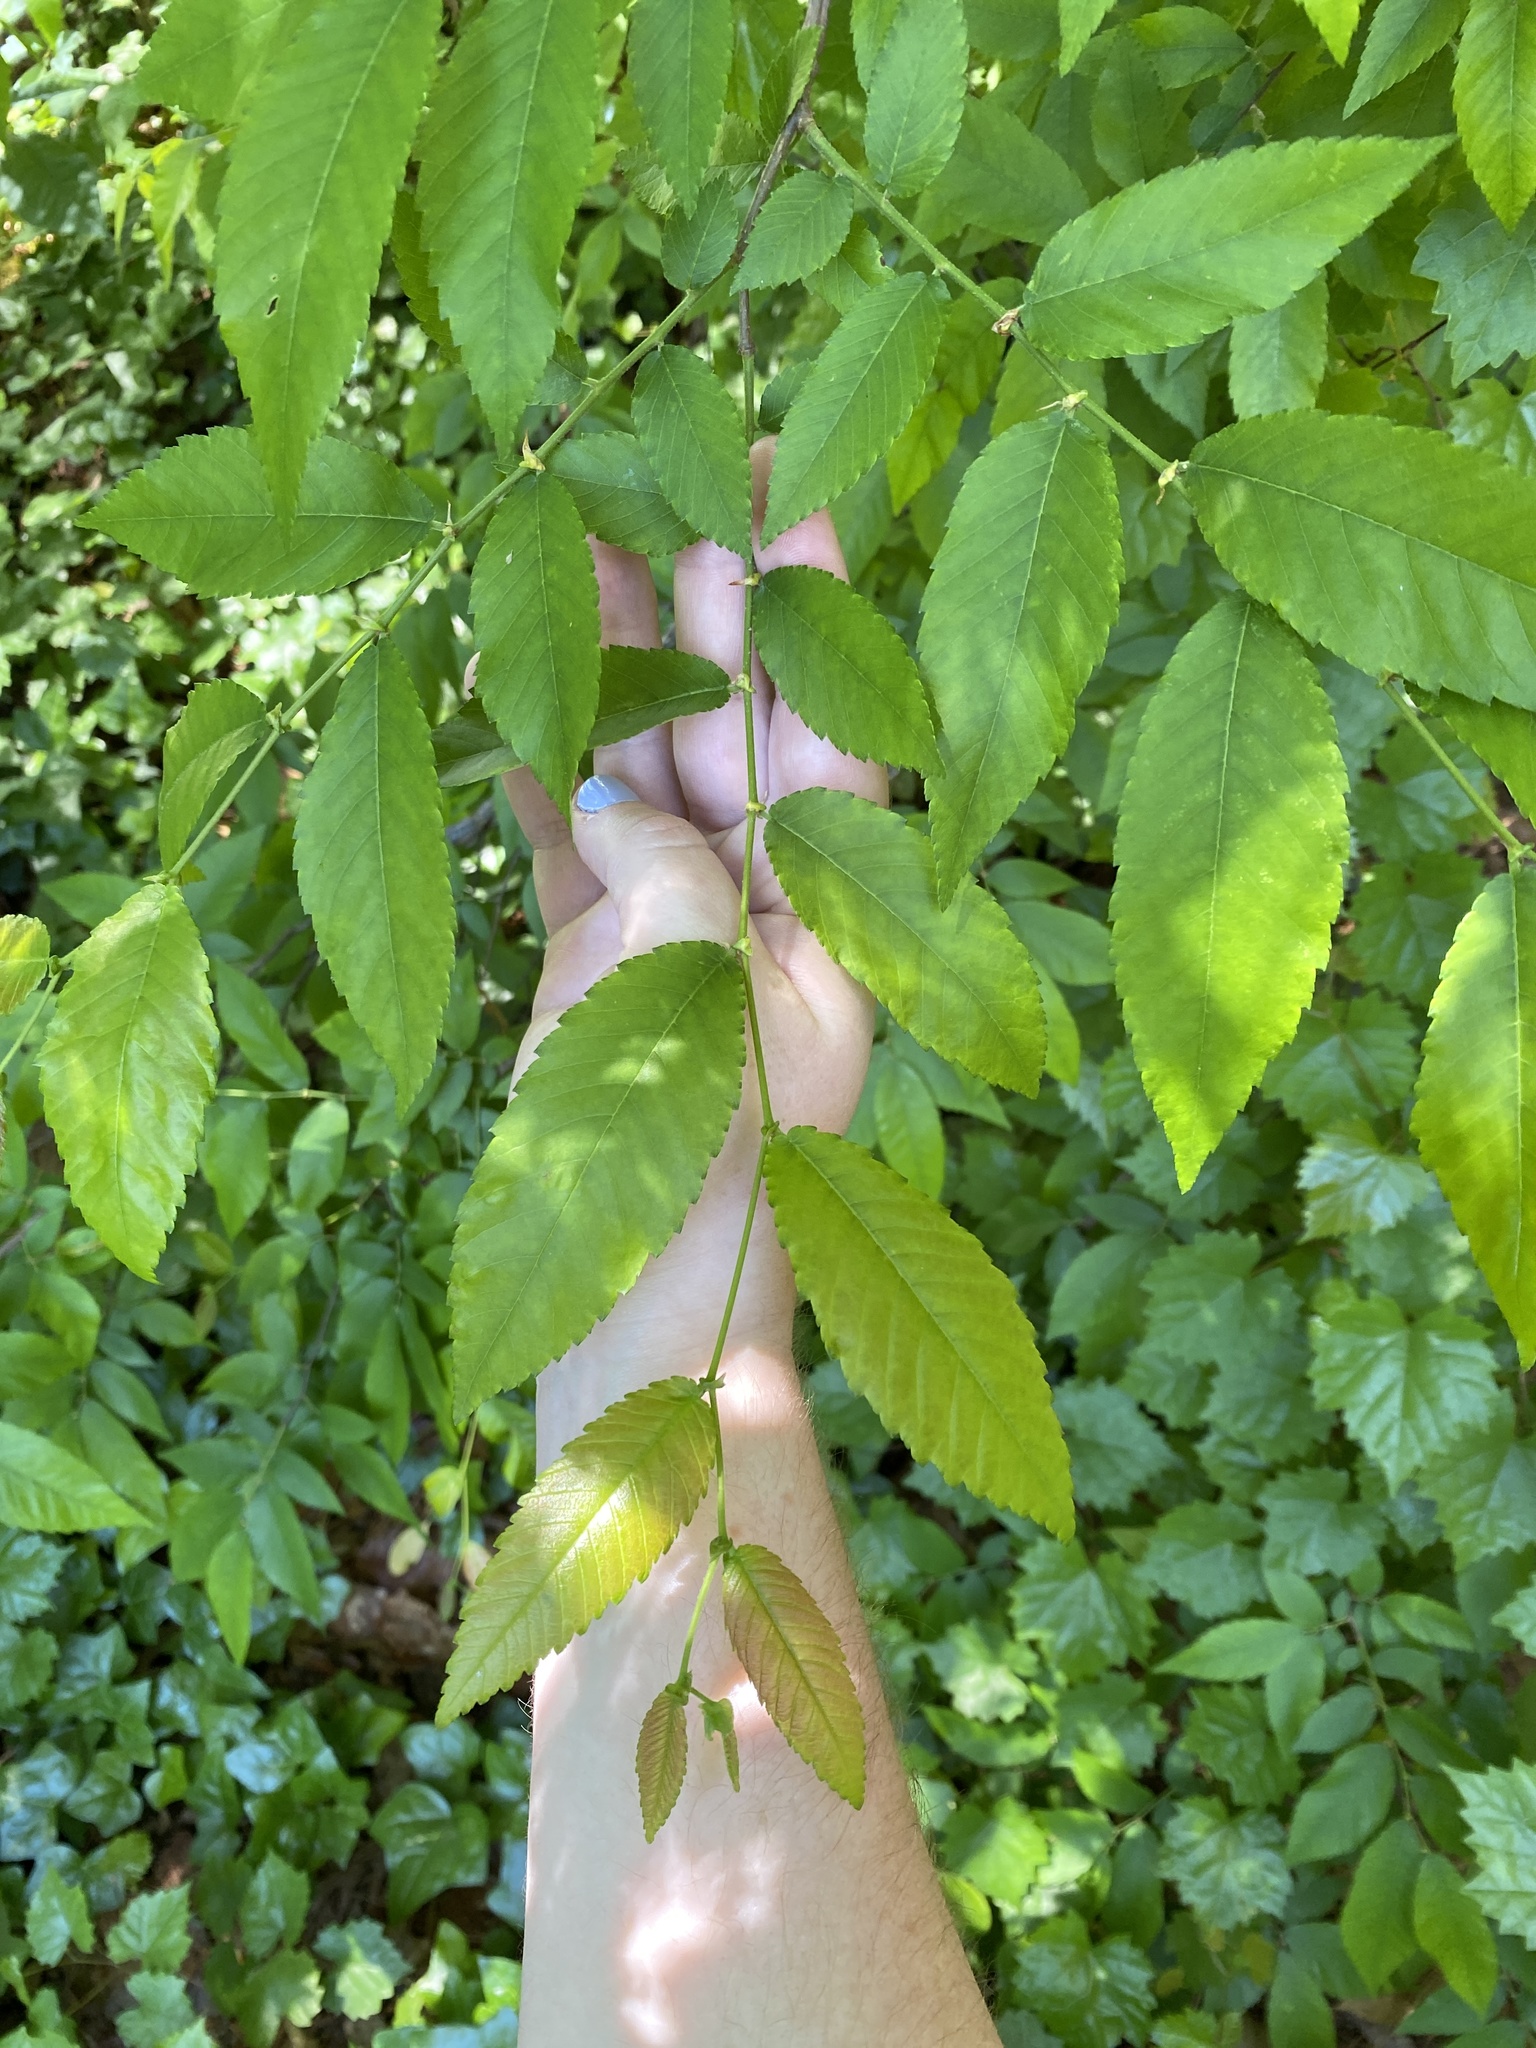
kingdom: Plantae
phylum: Tracheophyta
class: Magnoliopsida
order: Rosales
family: Ulmaceae
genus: Ulmus
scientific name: Ulmus alata
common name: Winged elm
